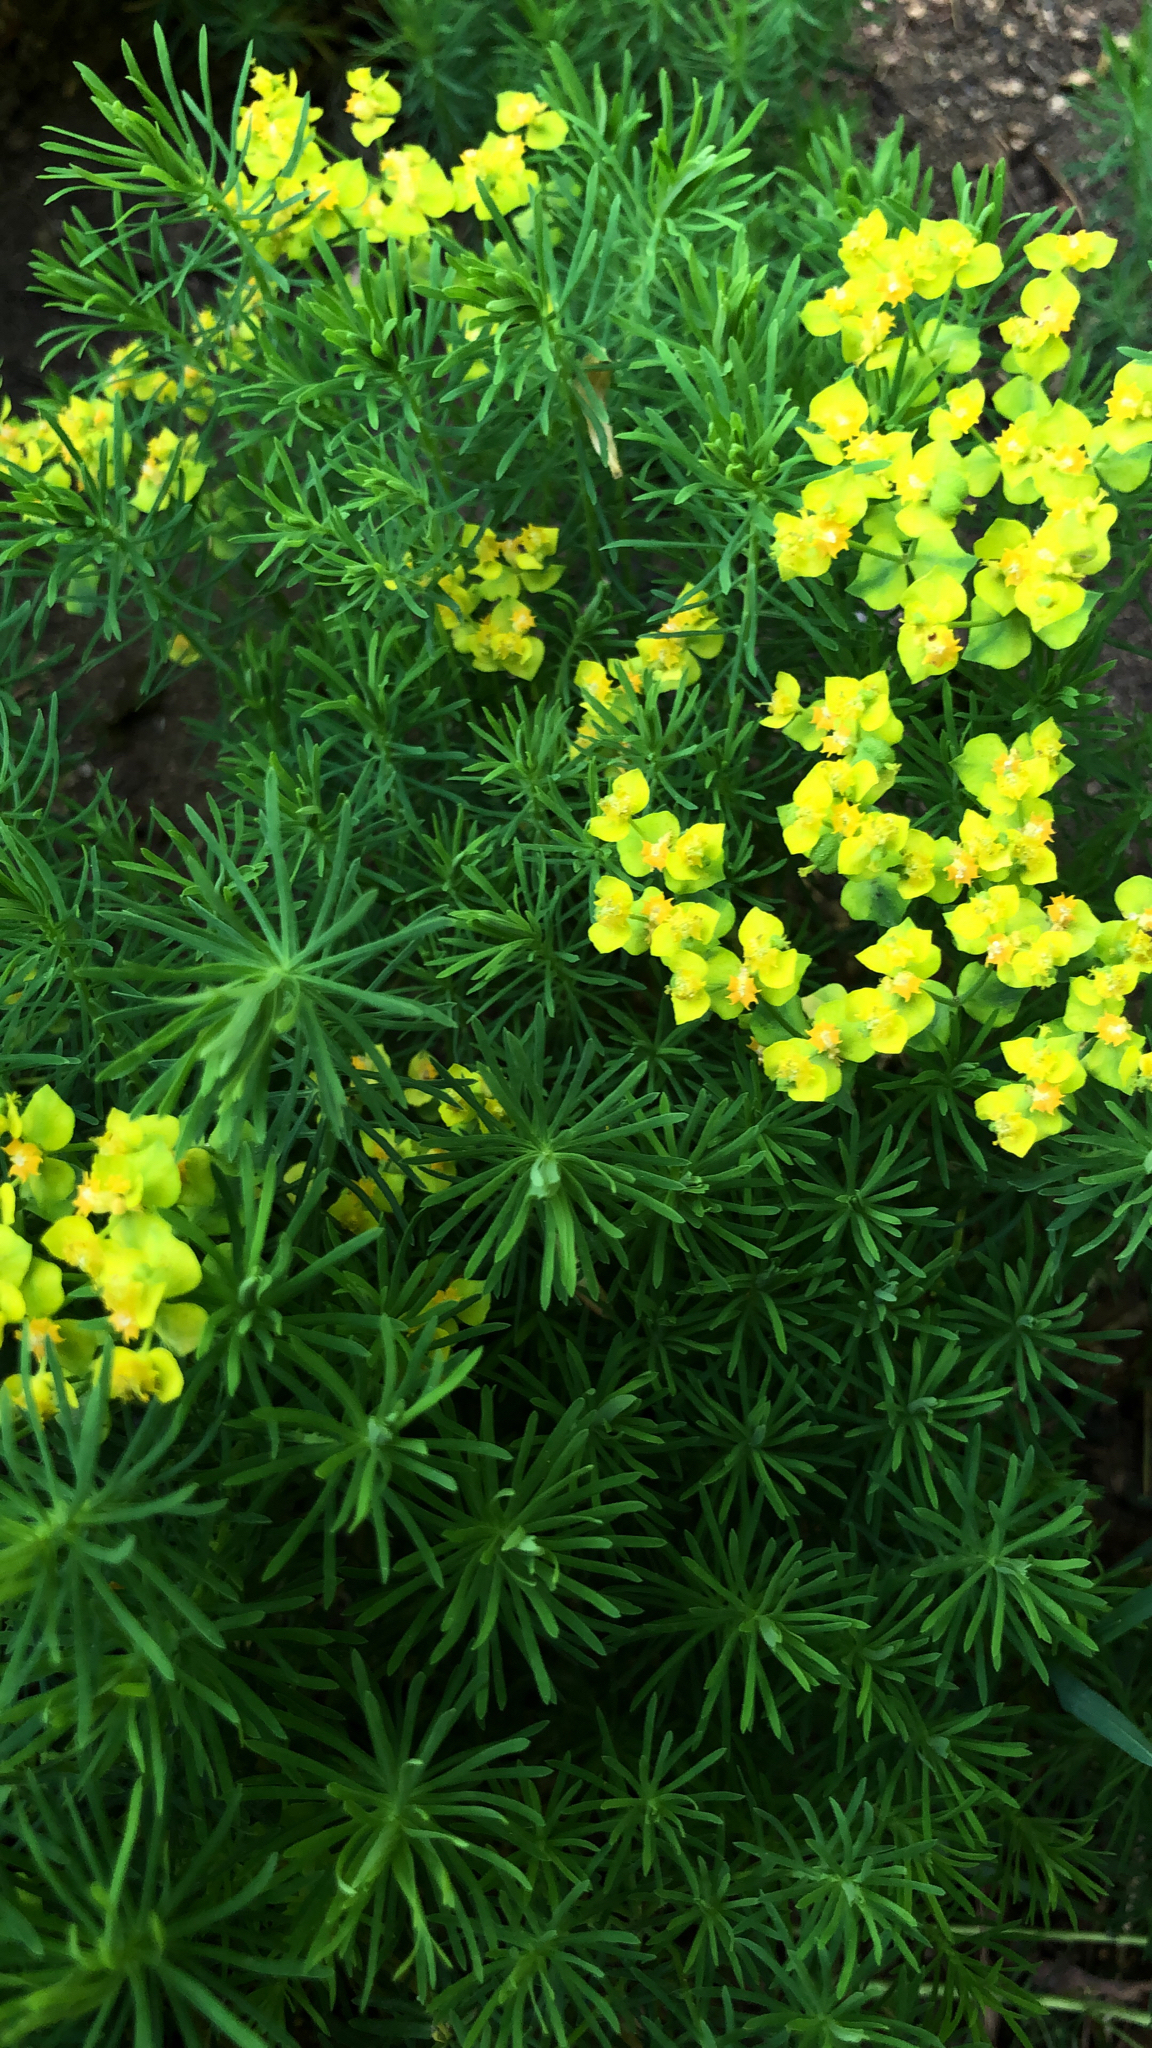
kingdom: Plantae
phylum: Tracheophyta
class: Magnoliopsida
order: Malpighiales
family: Euphorbiaceae
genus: Euphorbia
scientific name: Euphorbia cyparissias
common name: Cypress spurge
